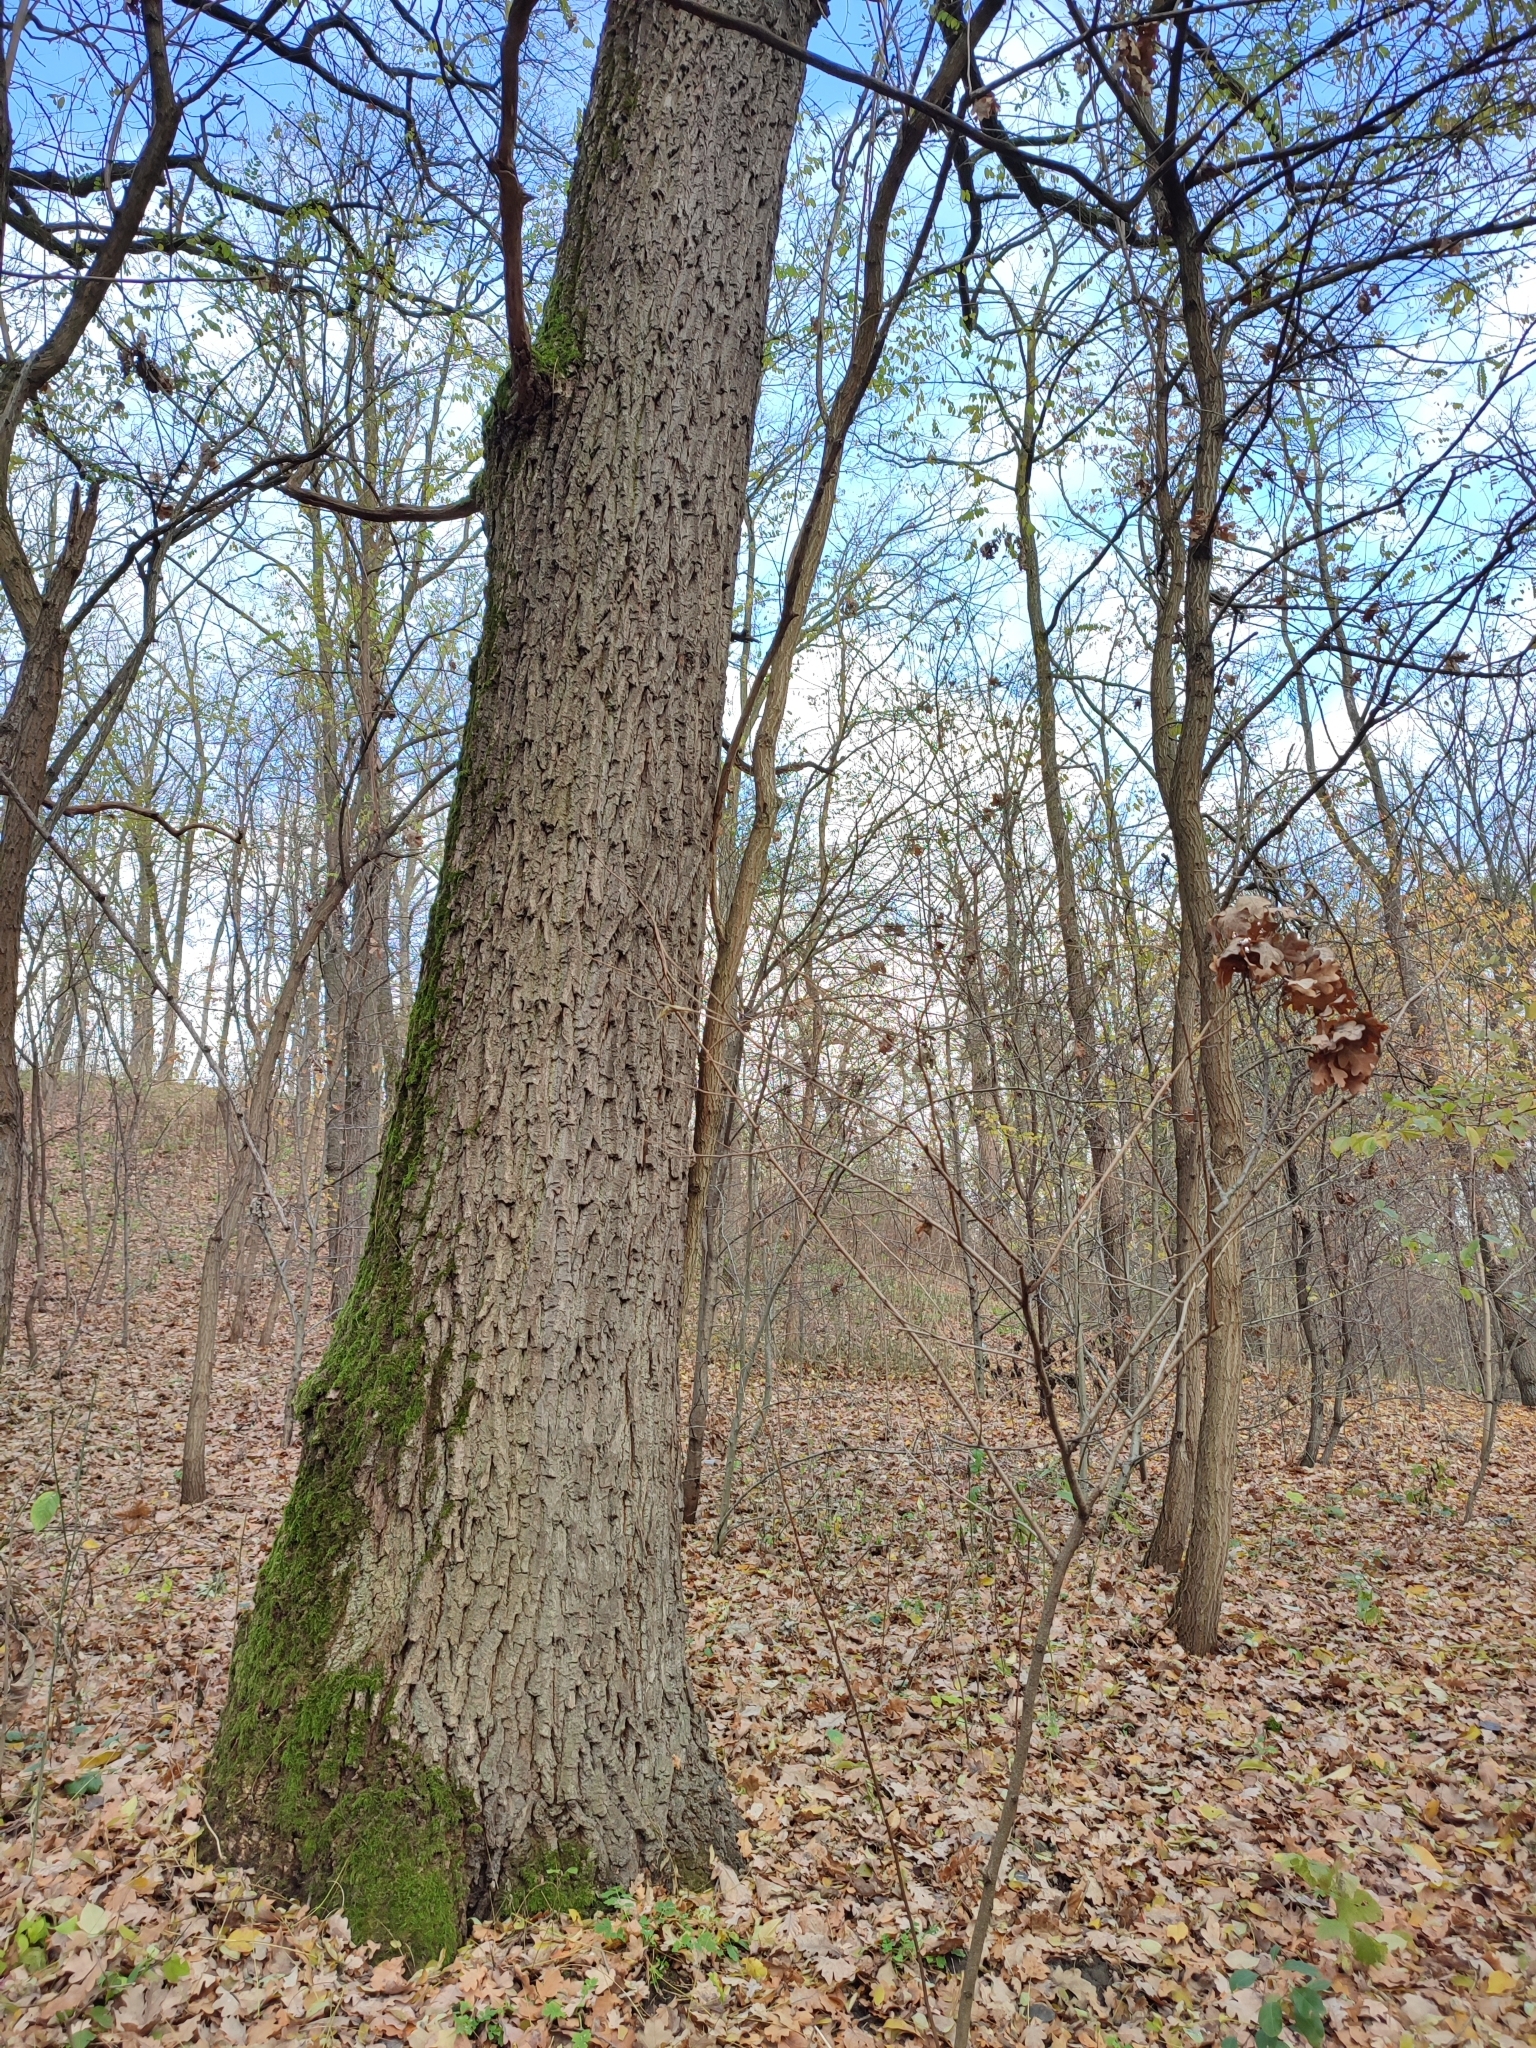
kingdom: Plantae
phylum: Tracheophyta
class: Magnoliopsida
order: Fagales
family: Fagaceae
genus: Quercus
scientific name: Quercus robur
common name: Pedunculate oak
